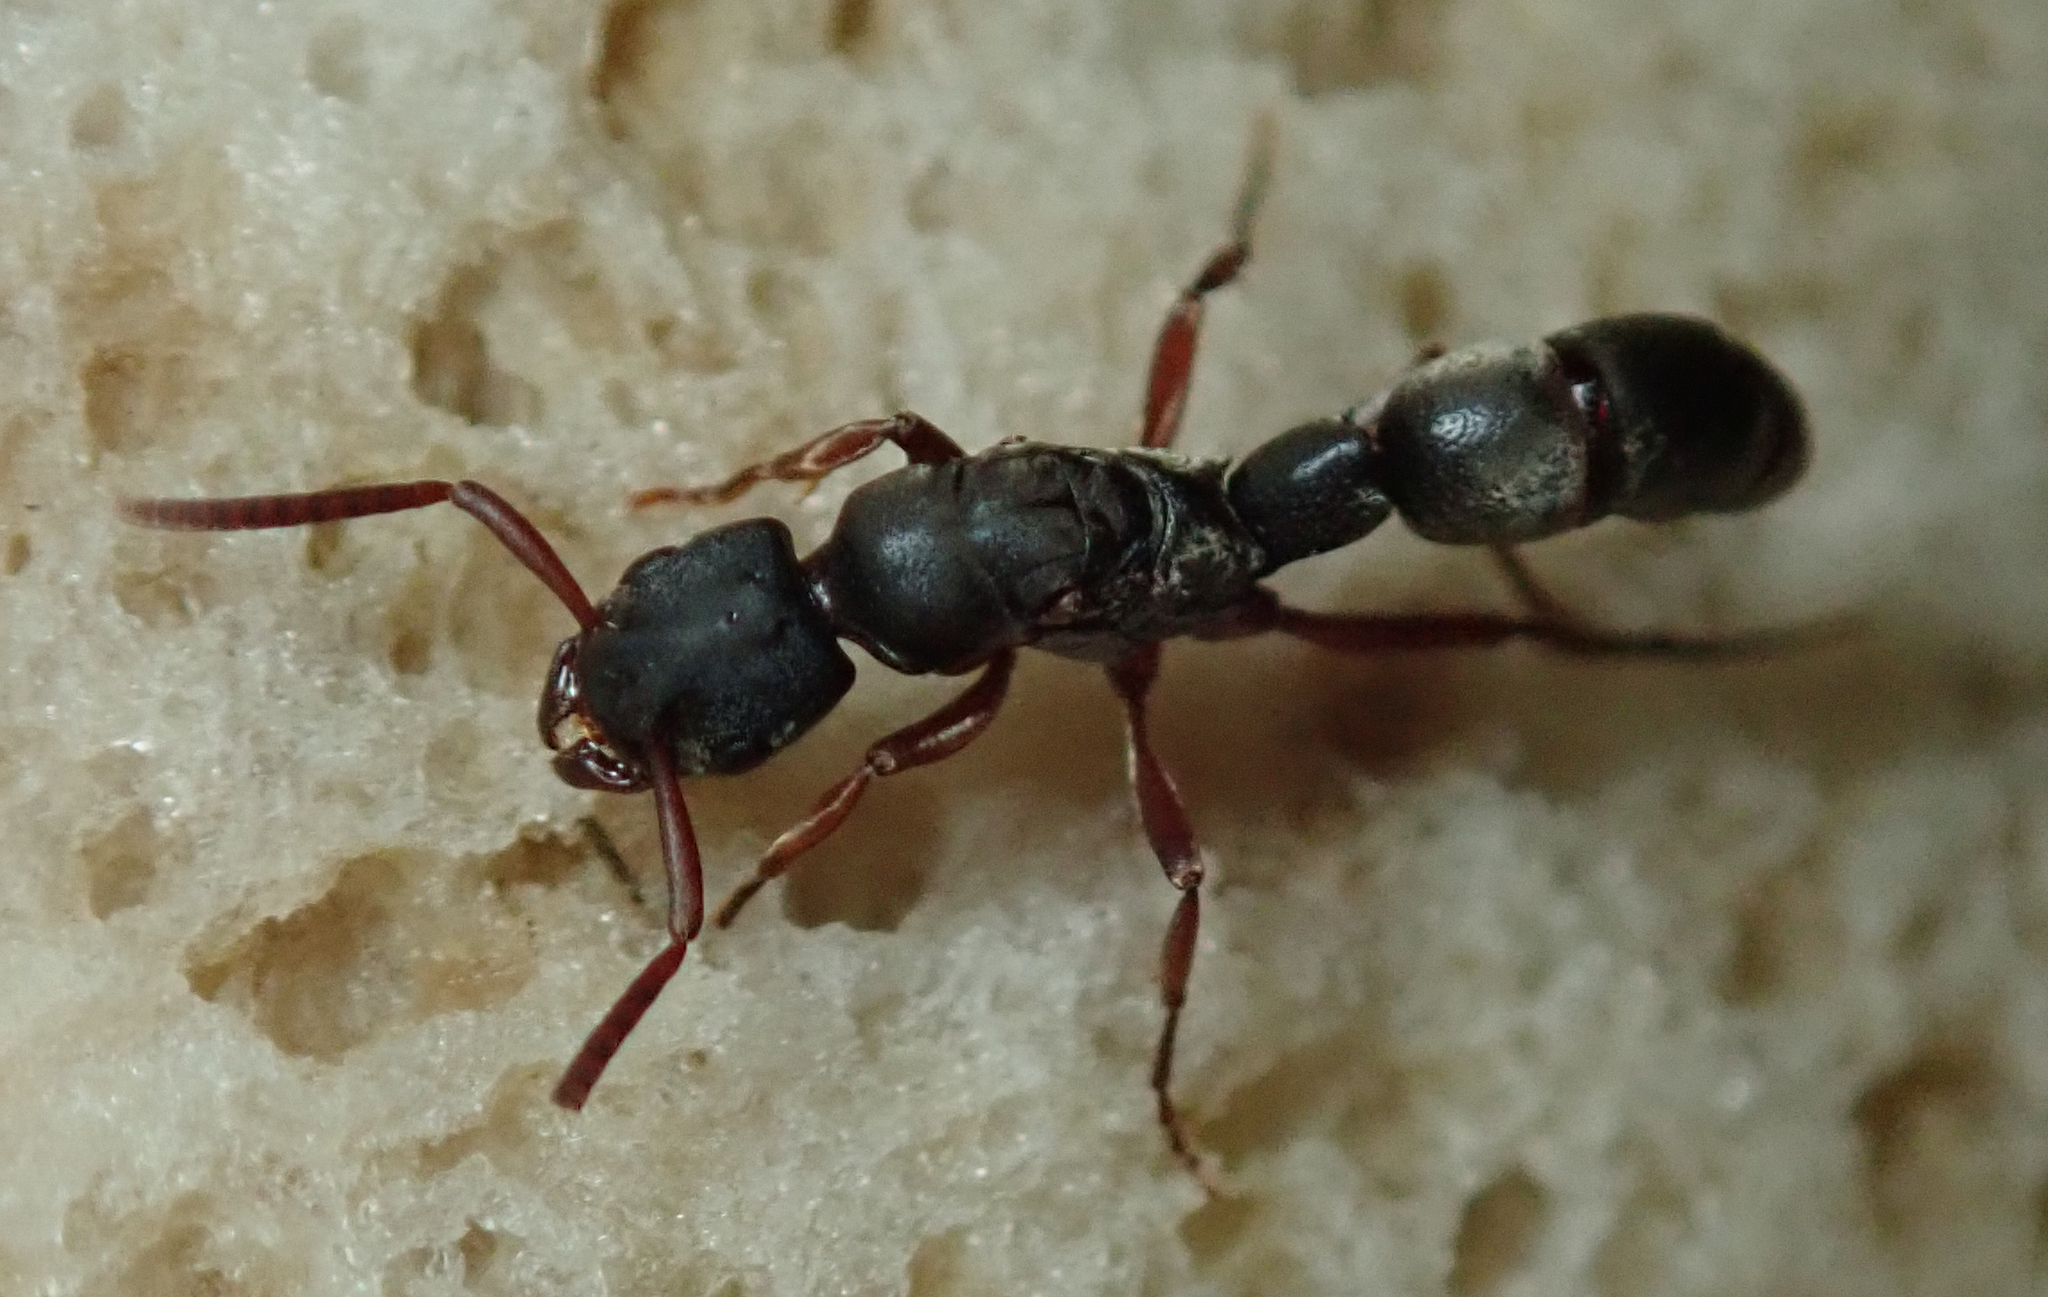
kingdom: Animalia
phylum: Arthropoda
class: Insecta
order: Hymenoptera
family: Formicidae
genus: Platythyrea
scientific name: Platythyrea modesta
